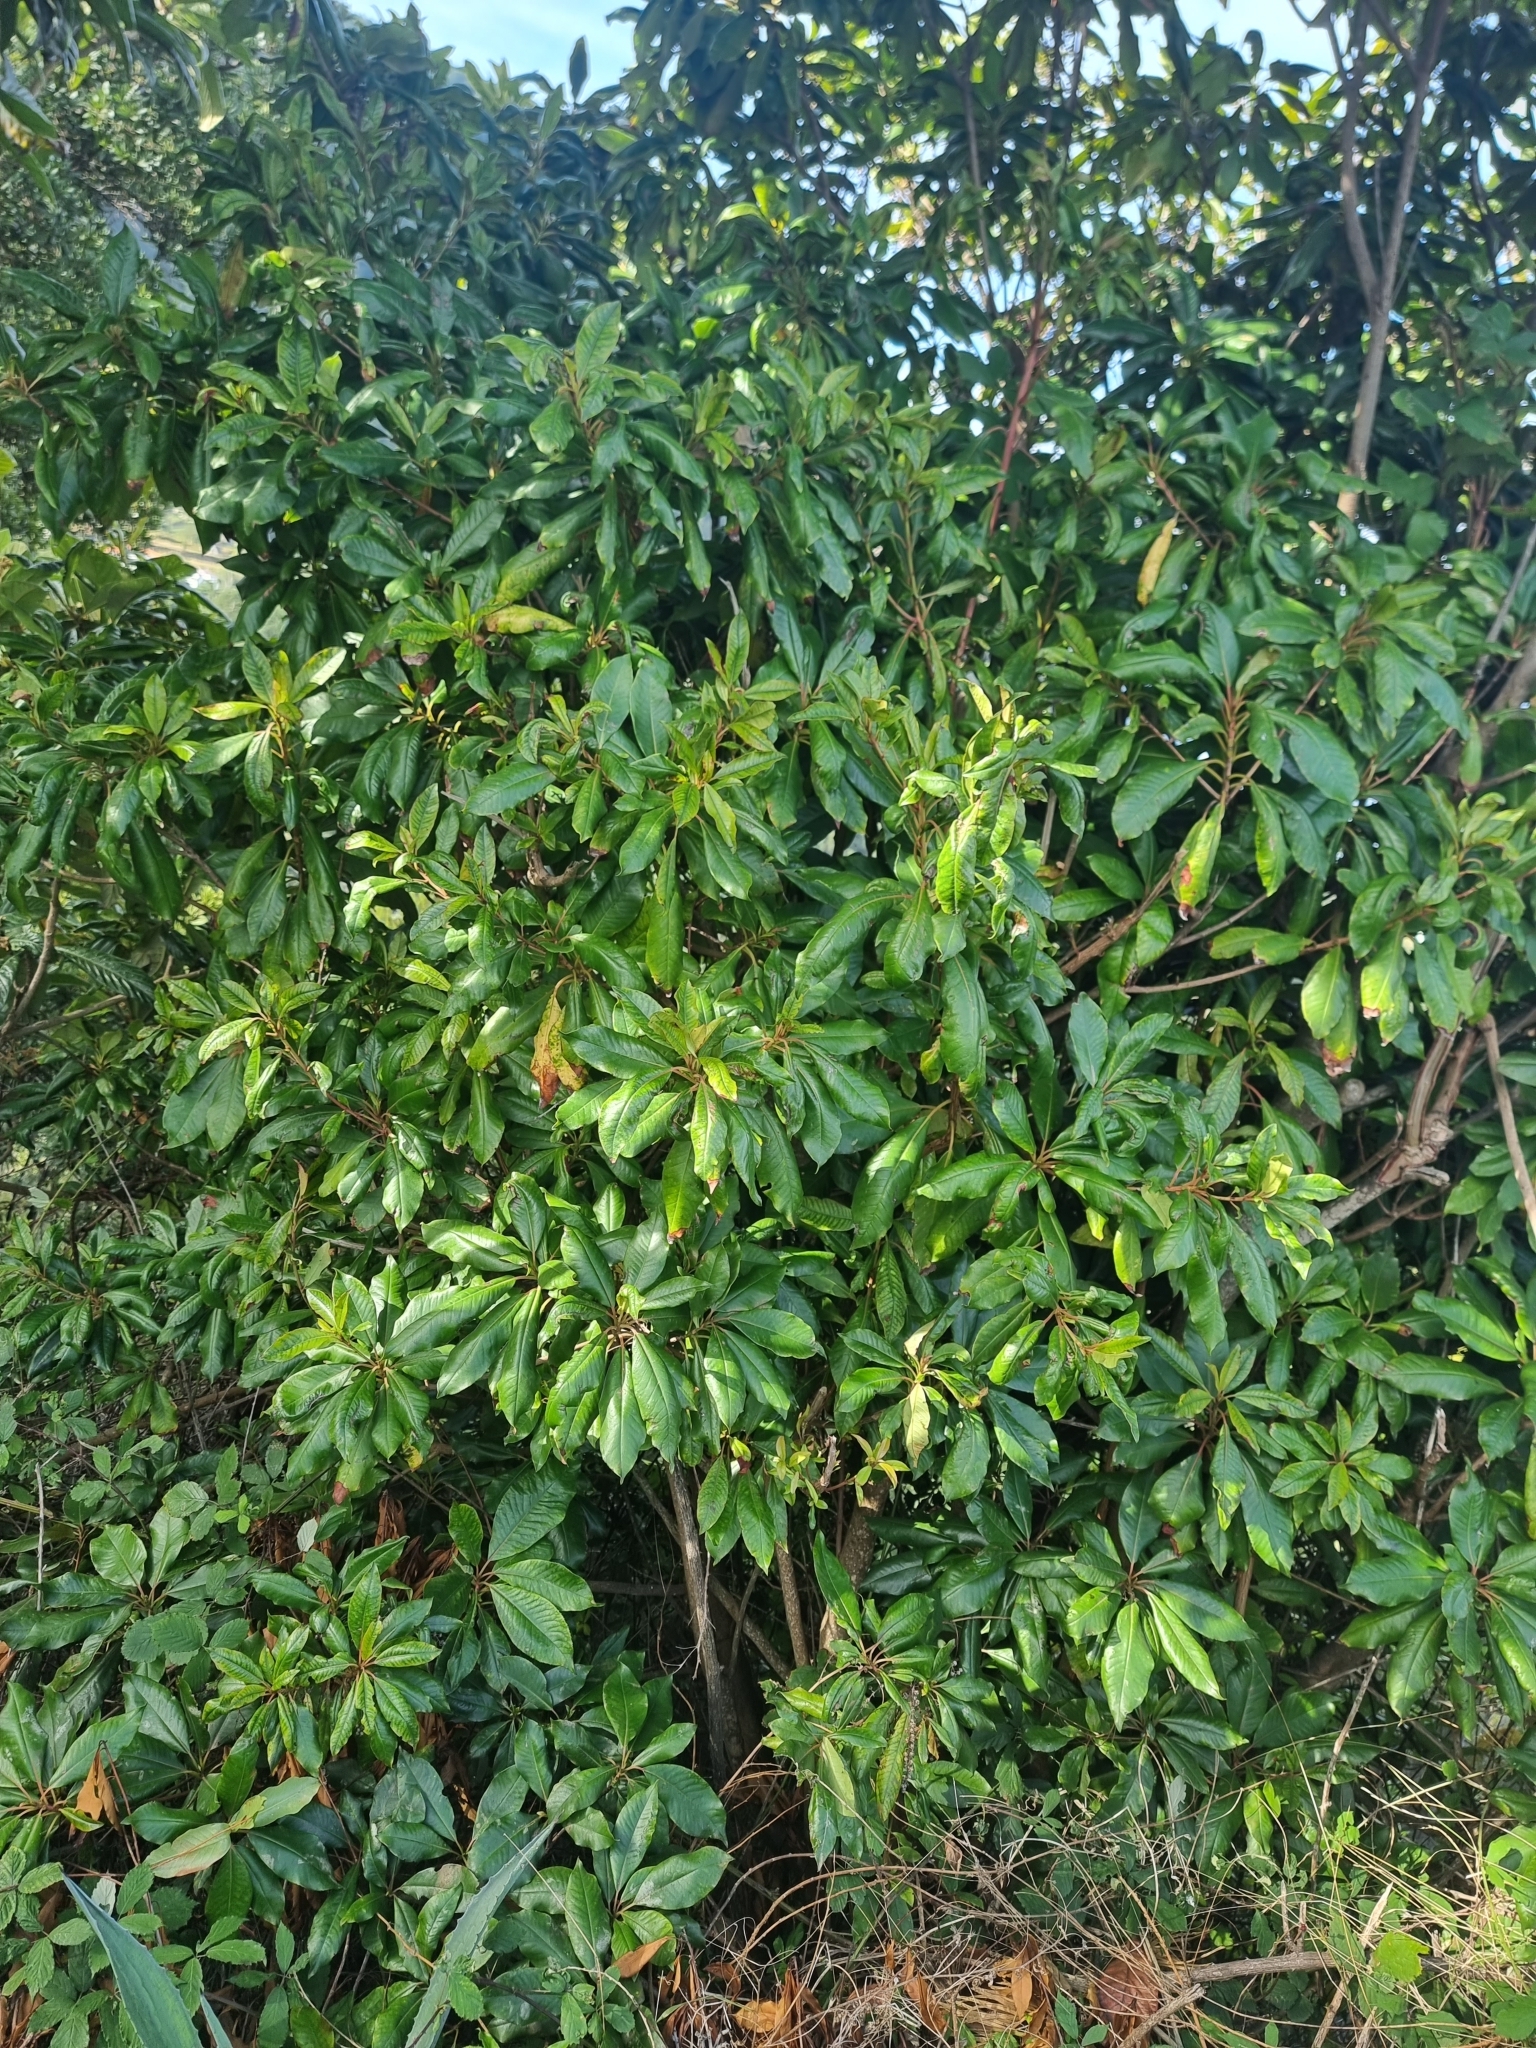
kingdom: Plantae
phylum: Tracheophyta
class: Magnoliopsida
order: Ericales
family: Clethraceae
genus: Clethra
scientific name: Clethra arborea
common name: Lily-of-the-valley-tree
